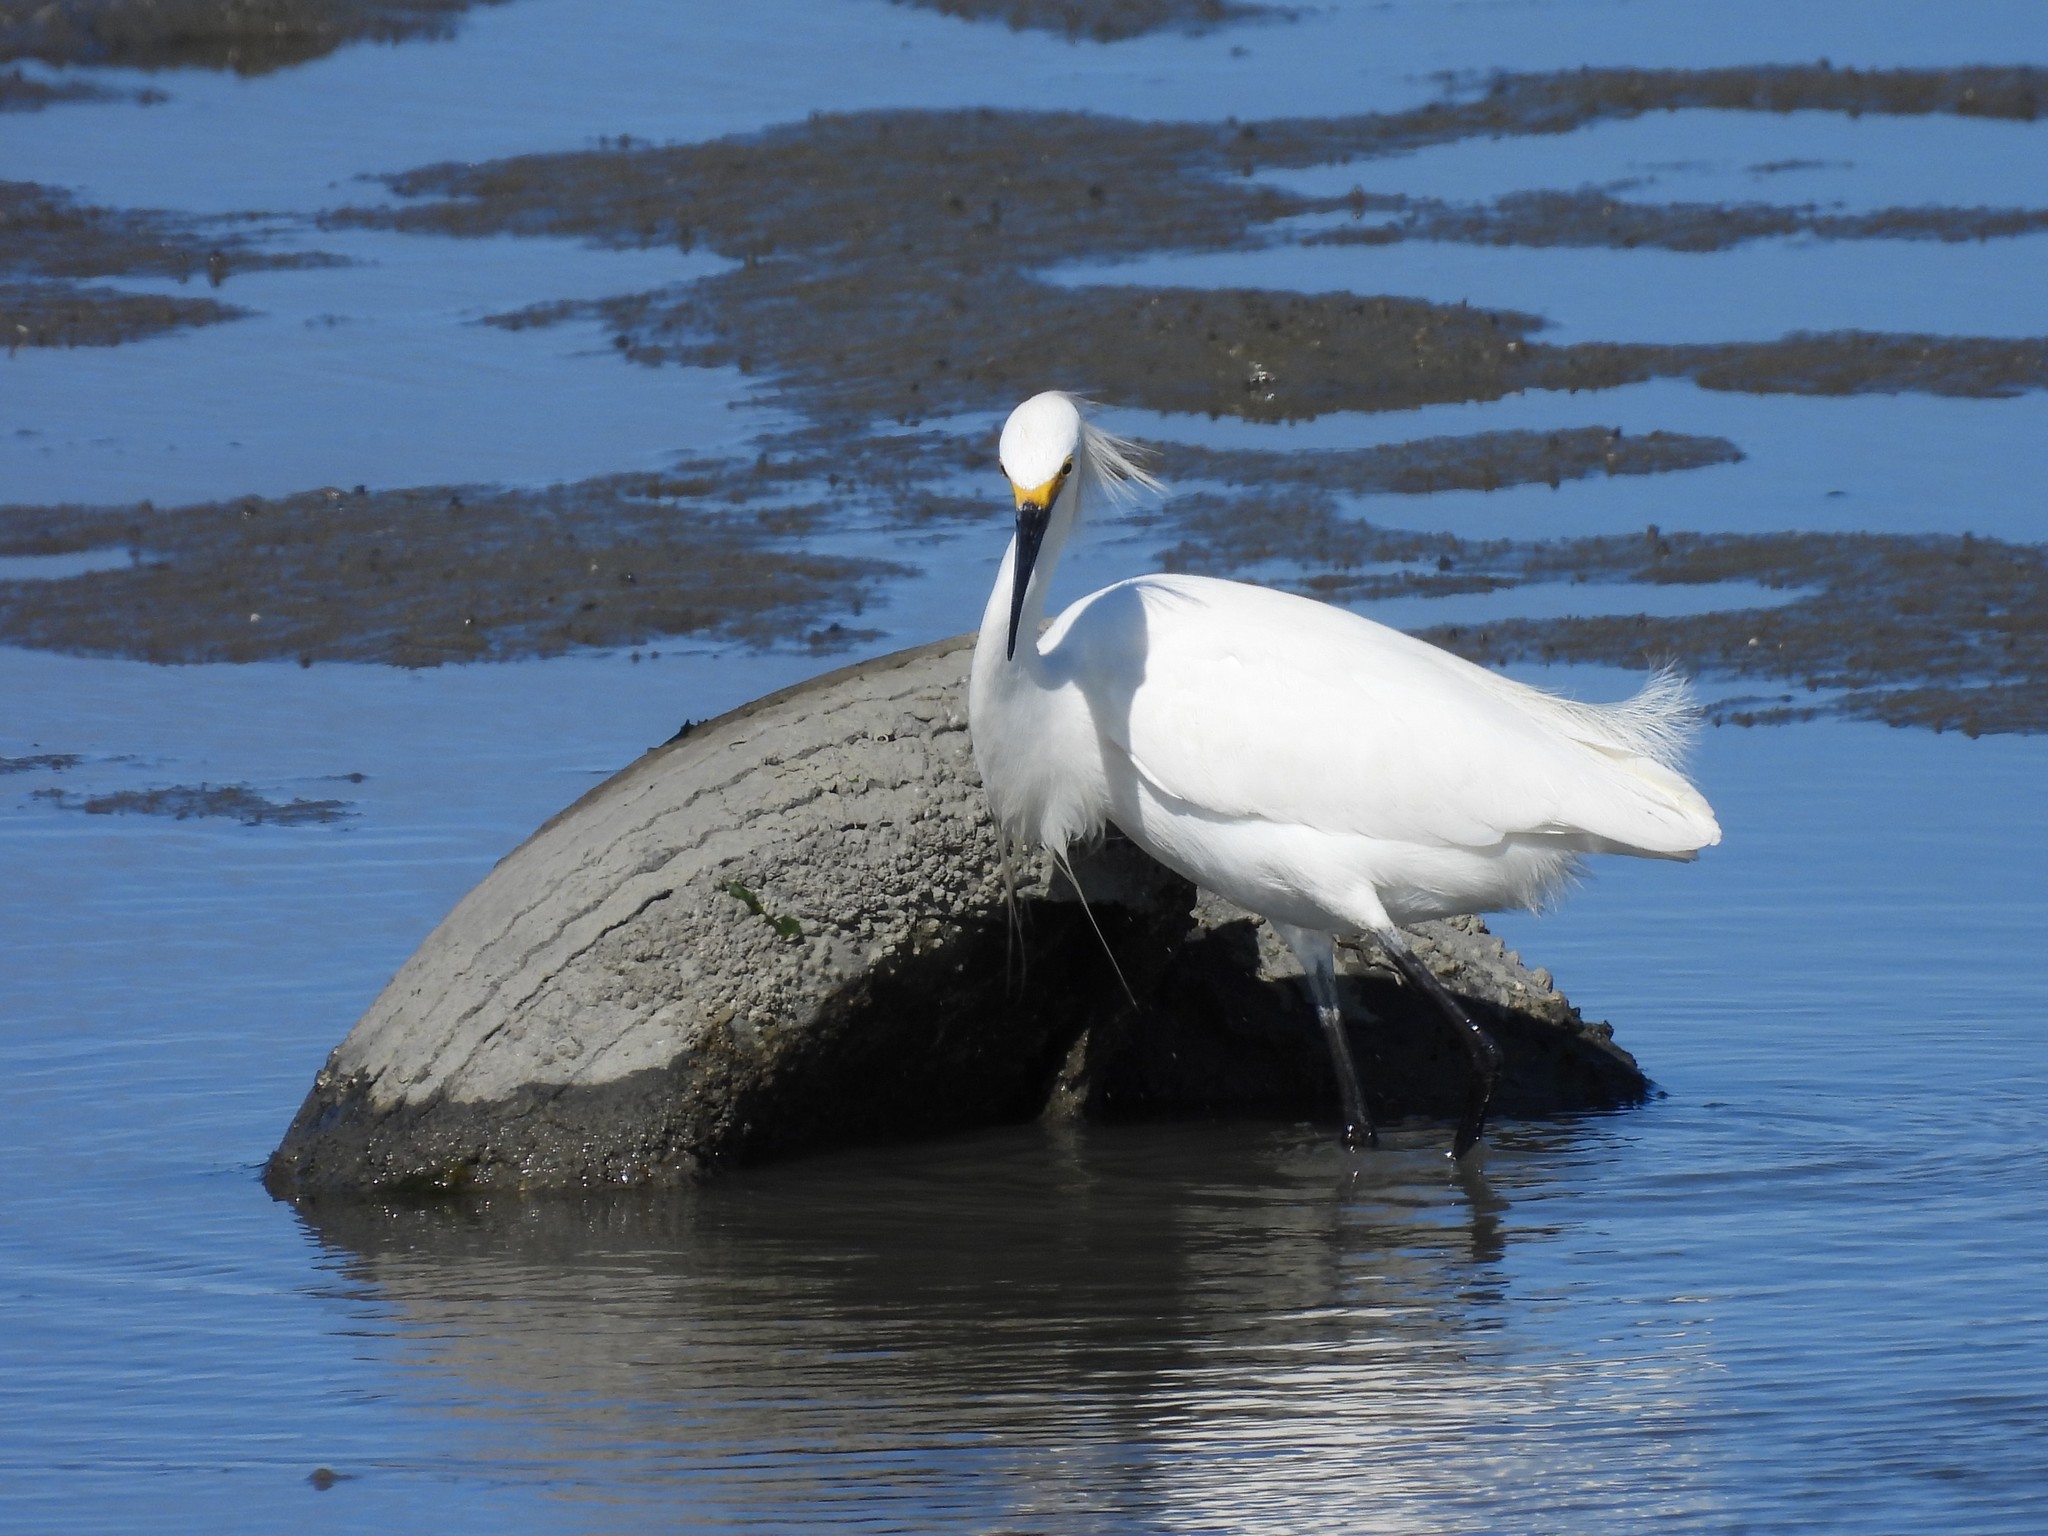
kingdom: Animalia
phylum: Chordata
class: Aves
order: Pelecaniformes
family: Ardeidae
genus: Egretta
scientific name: Egretta thula
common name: Snowy egret
